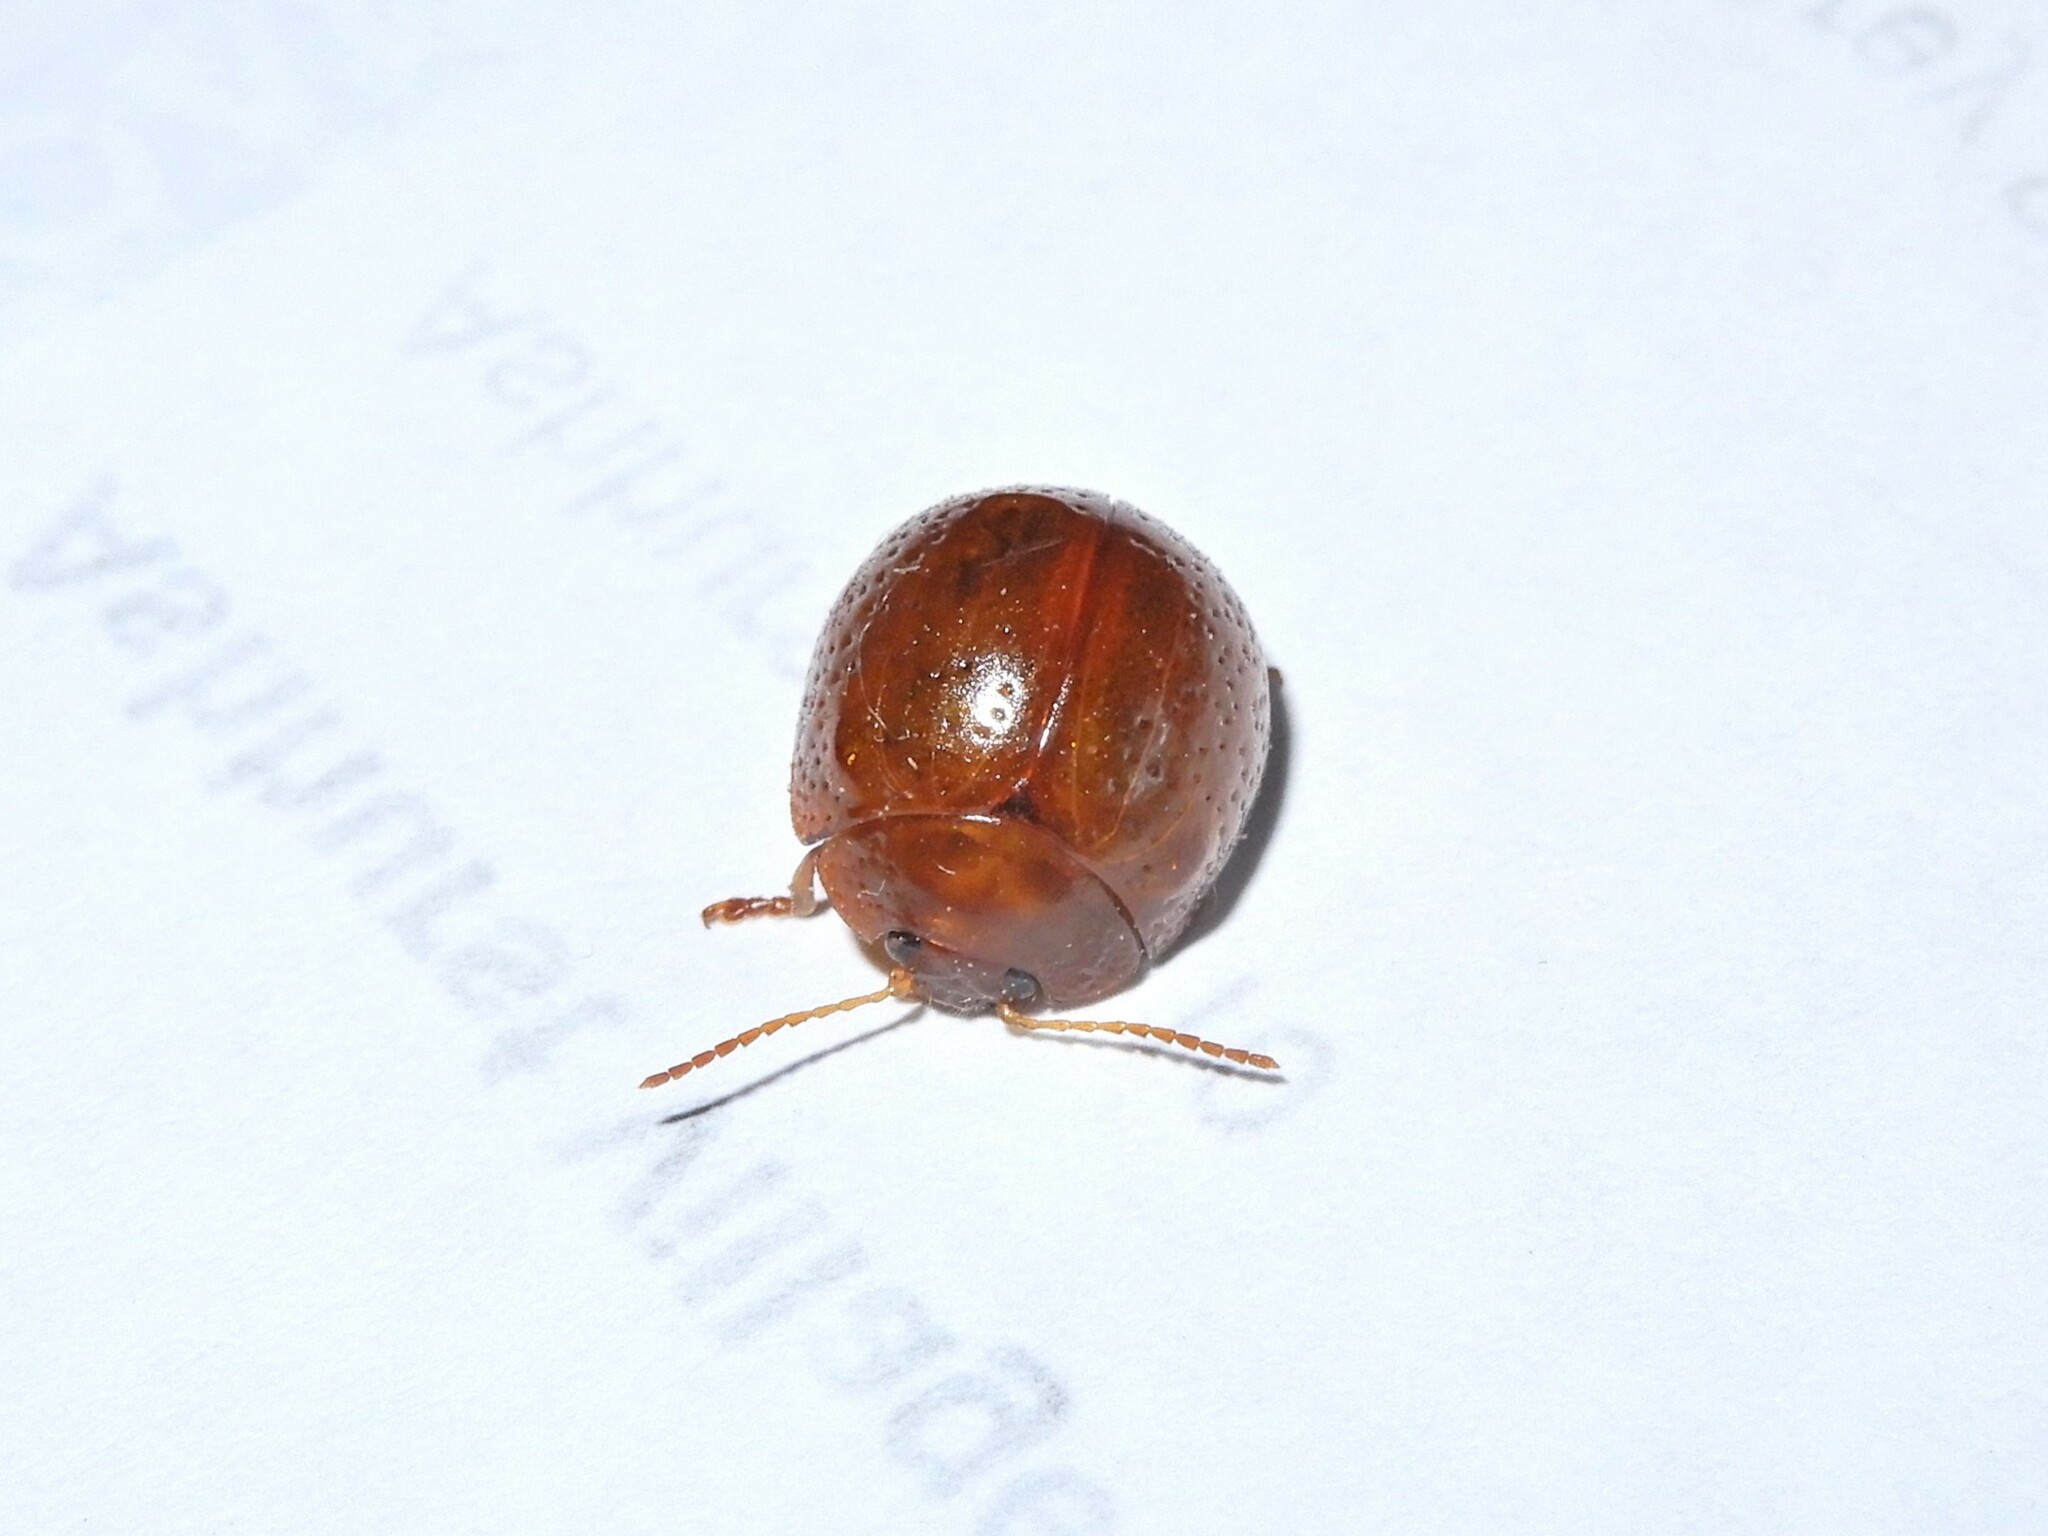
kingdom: Animalia
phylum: Arthropoda
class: Insecta
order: Coleoptera
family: Chrysomelidae
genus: Dicranosterna
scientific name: Dicranosterna
